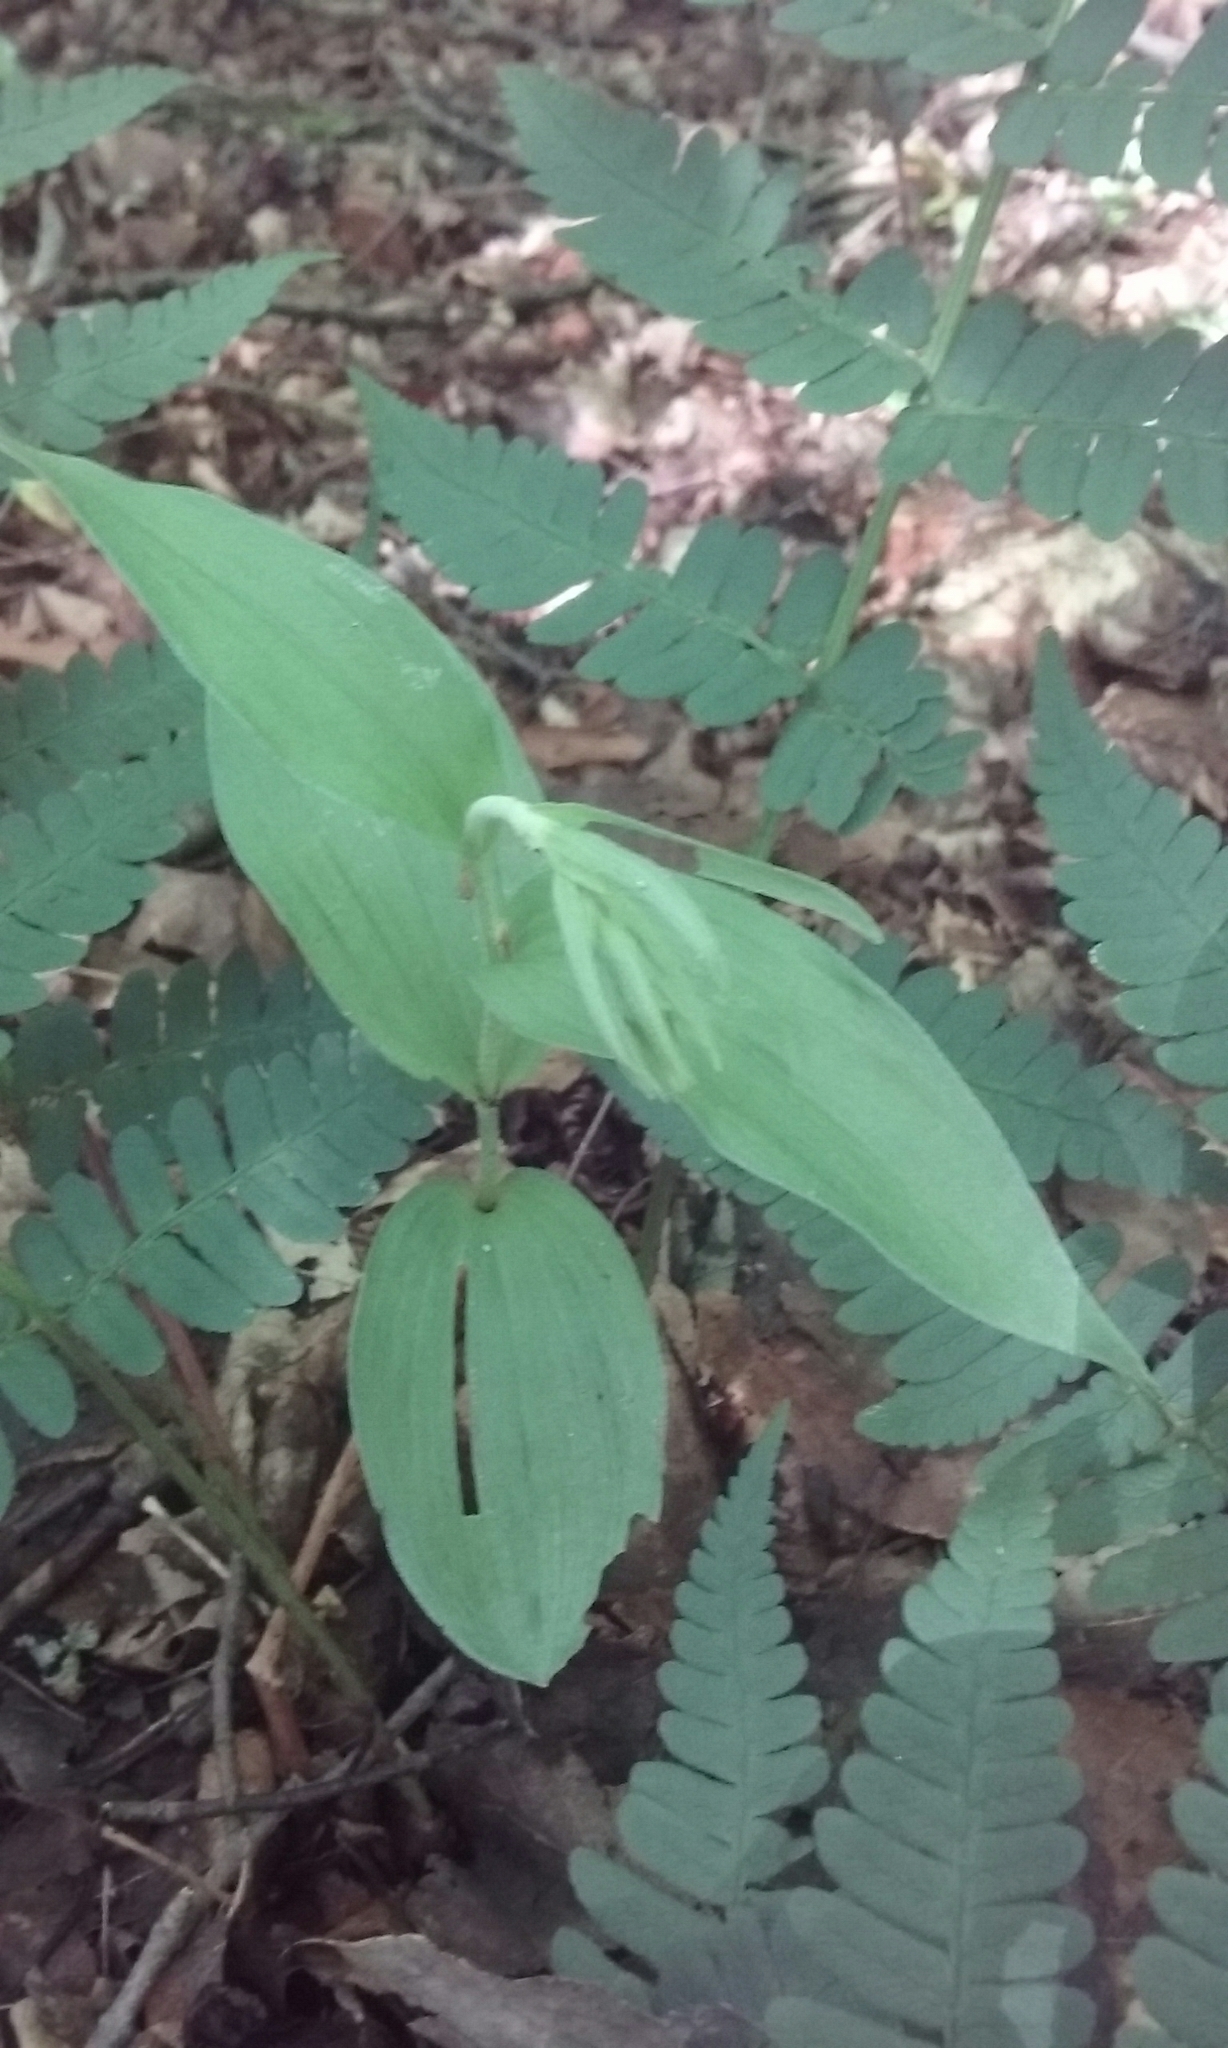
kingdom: Plantae
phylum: Tracheophyta
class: Liliopsida
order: Asparagales
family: Orchidaceae
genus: Epipactis
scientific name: Epipactis helleborine
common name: Broad-leaved helleborine
